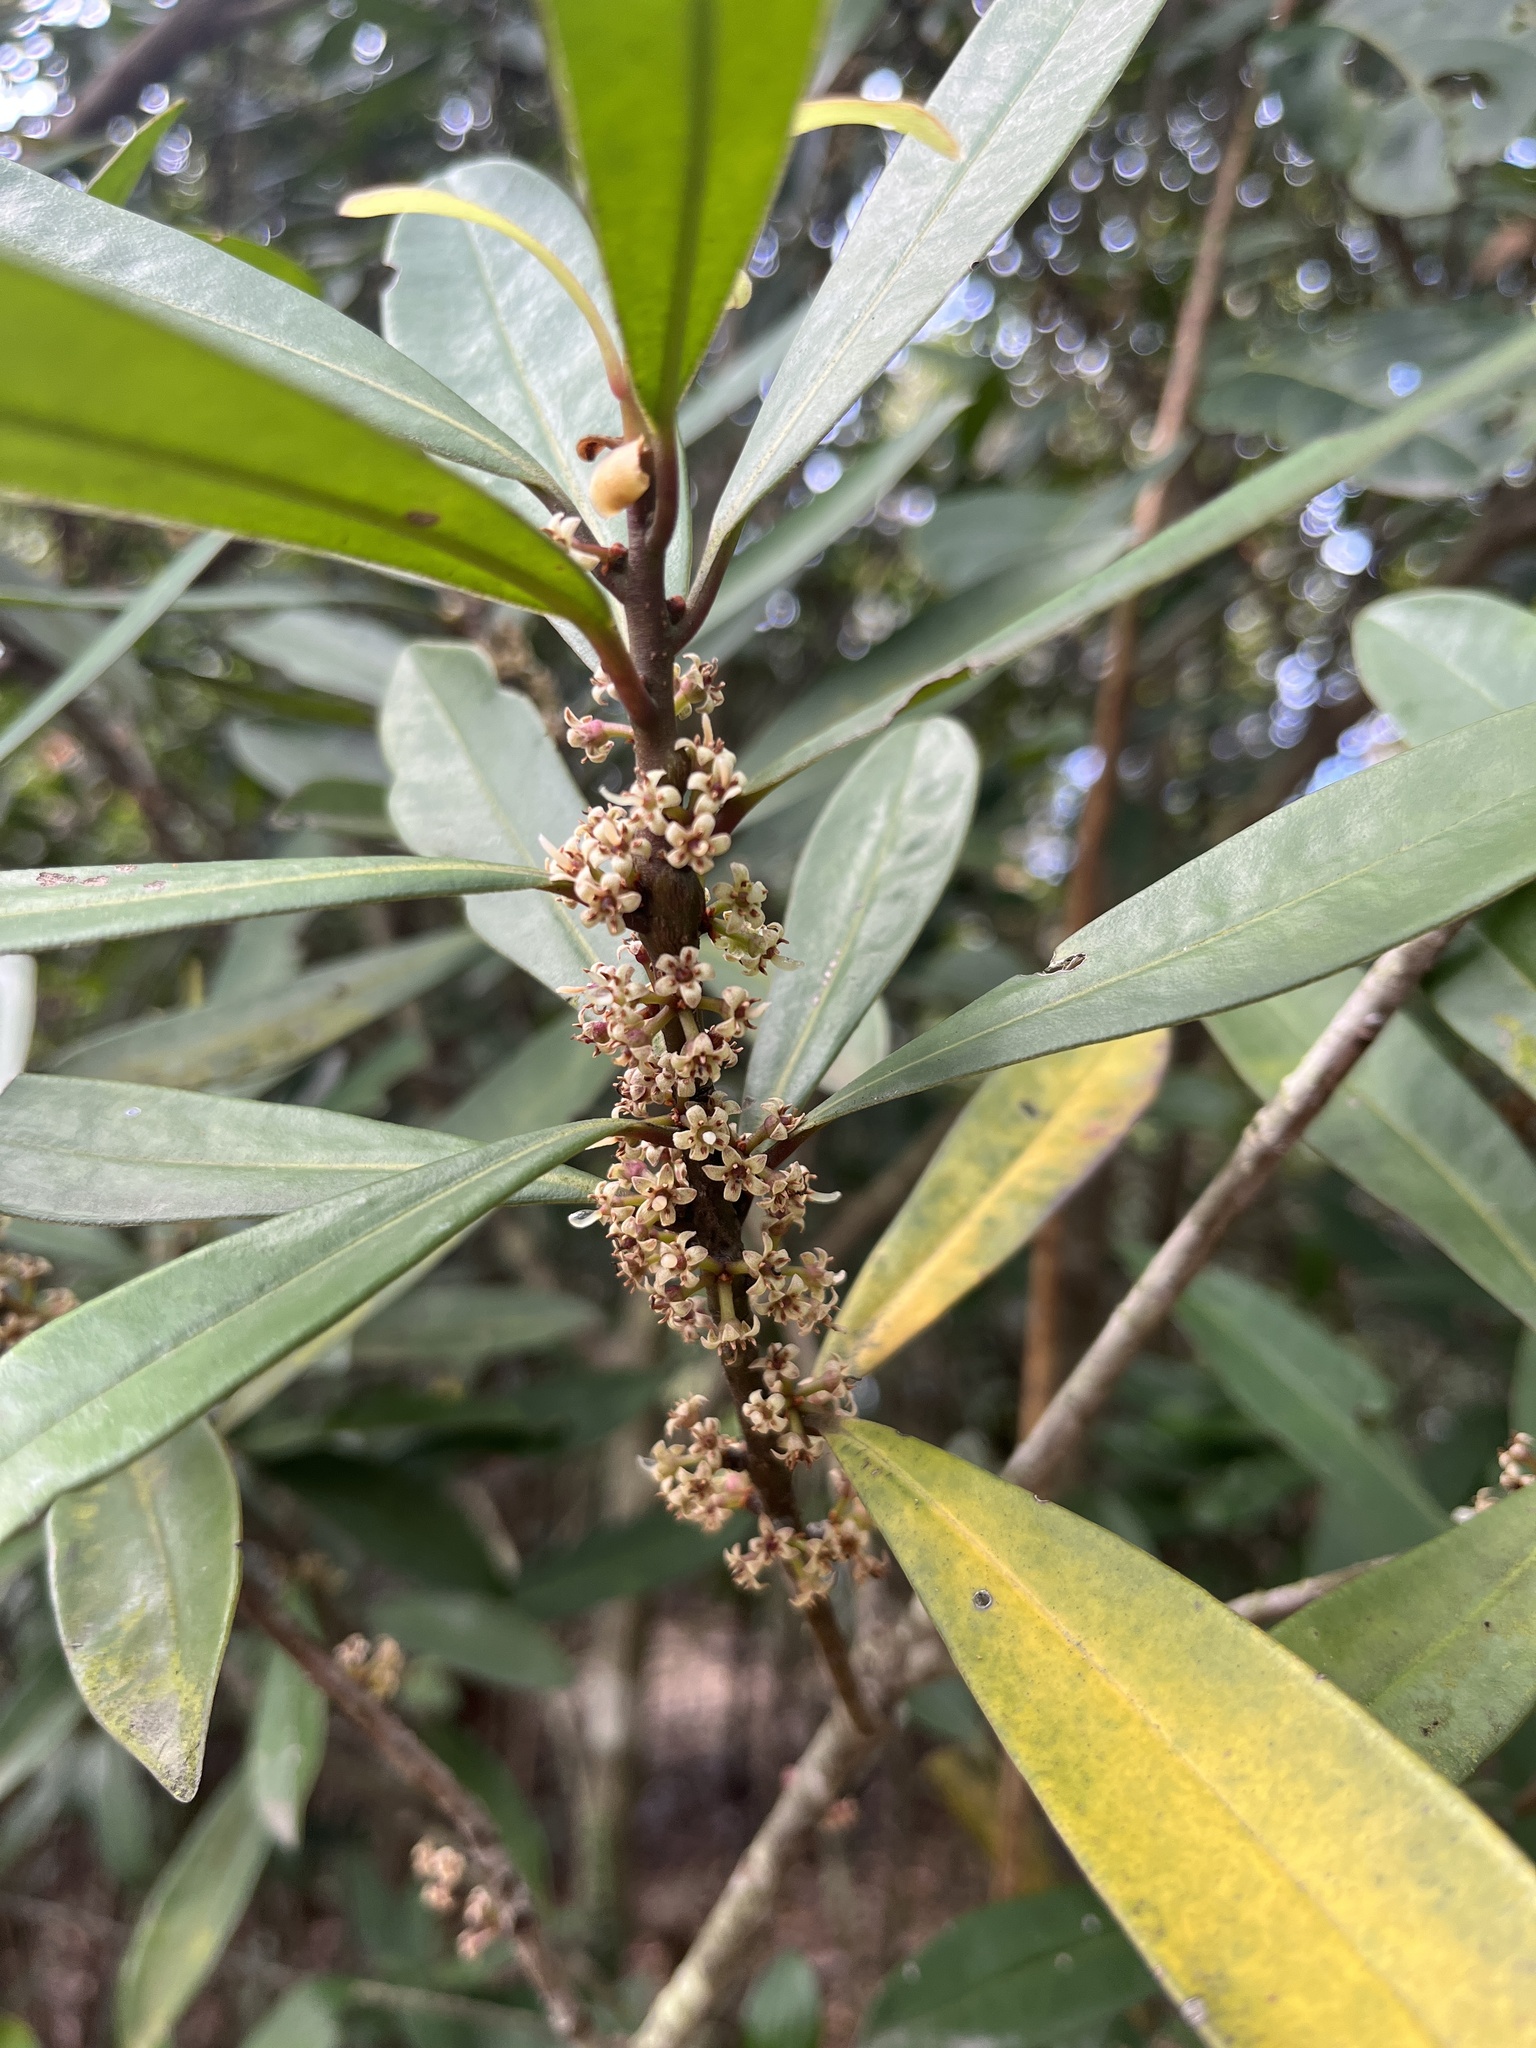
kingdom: Plantae
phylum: Tracheophyta
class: Magnoliopsida
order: Ericales
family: Primulaceae
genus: Myrsine
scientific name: Myrsine seguinii
